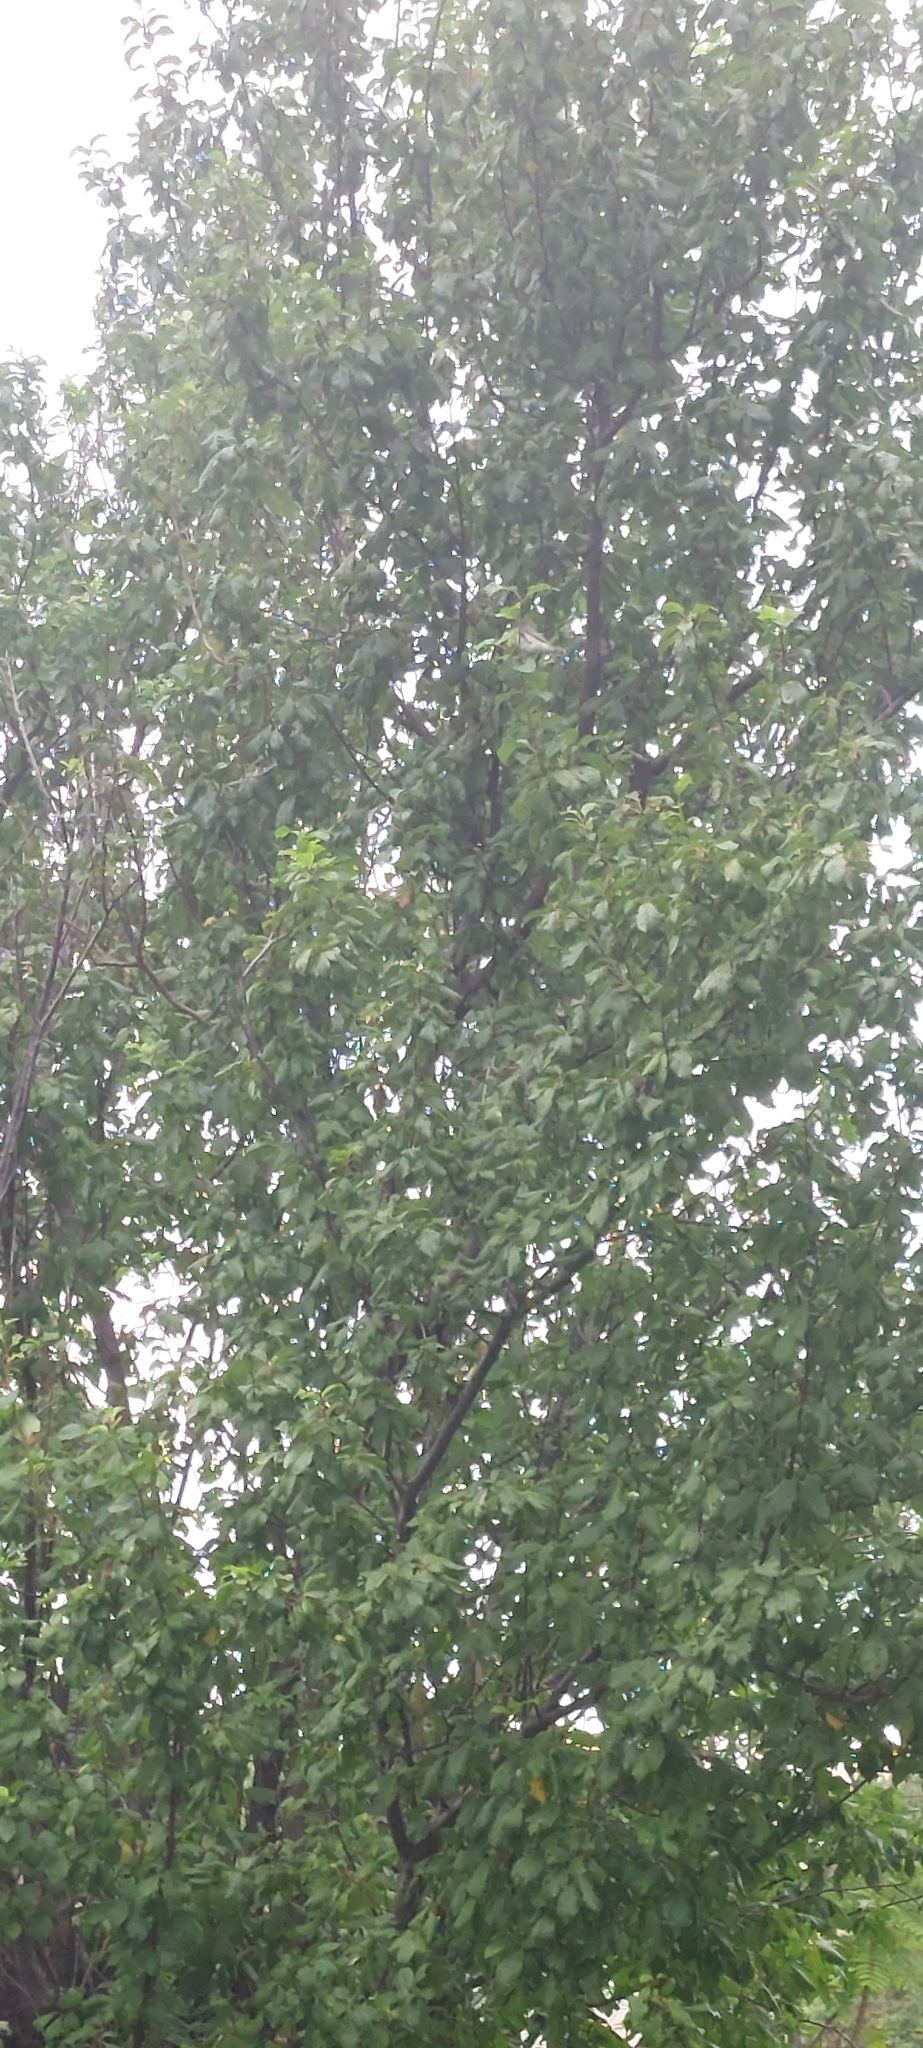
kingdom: Animalia
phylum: Chordata
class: Aves
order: Passeriformes
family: Thraupidae
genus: Sporophila
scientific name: Sporophila caerulescens
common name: Double-collared seedeater
